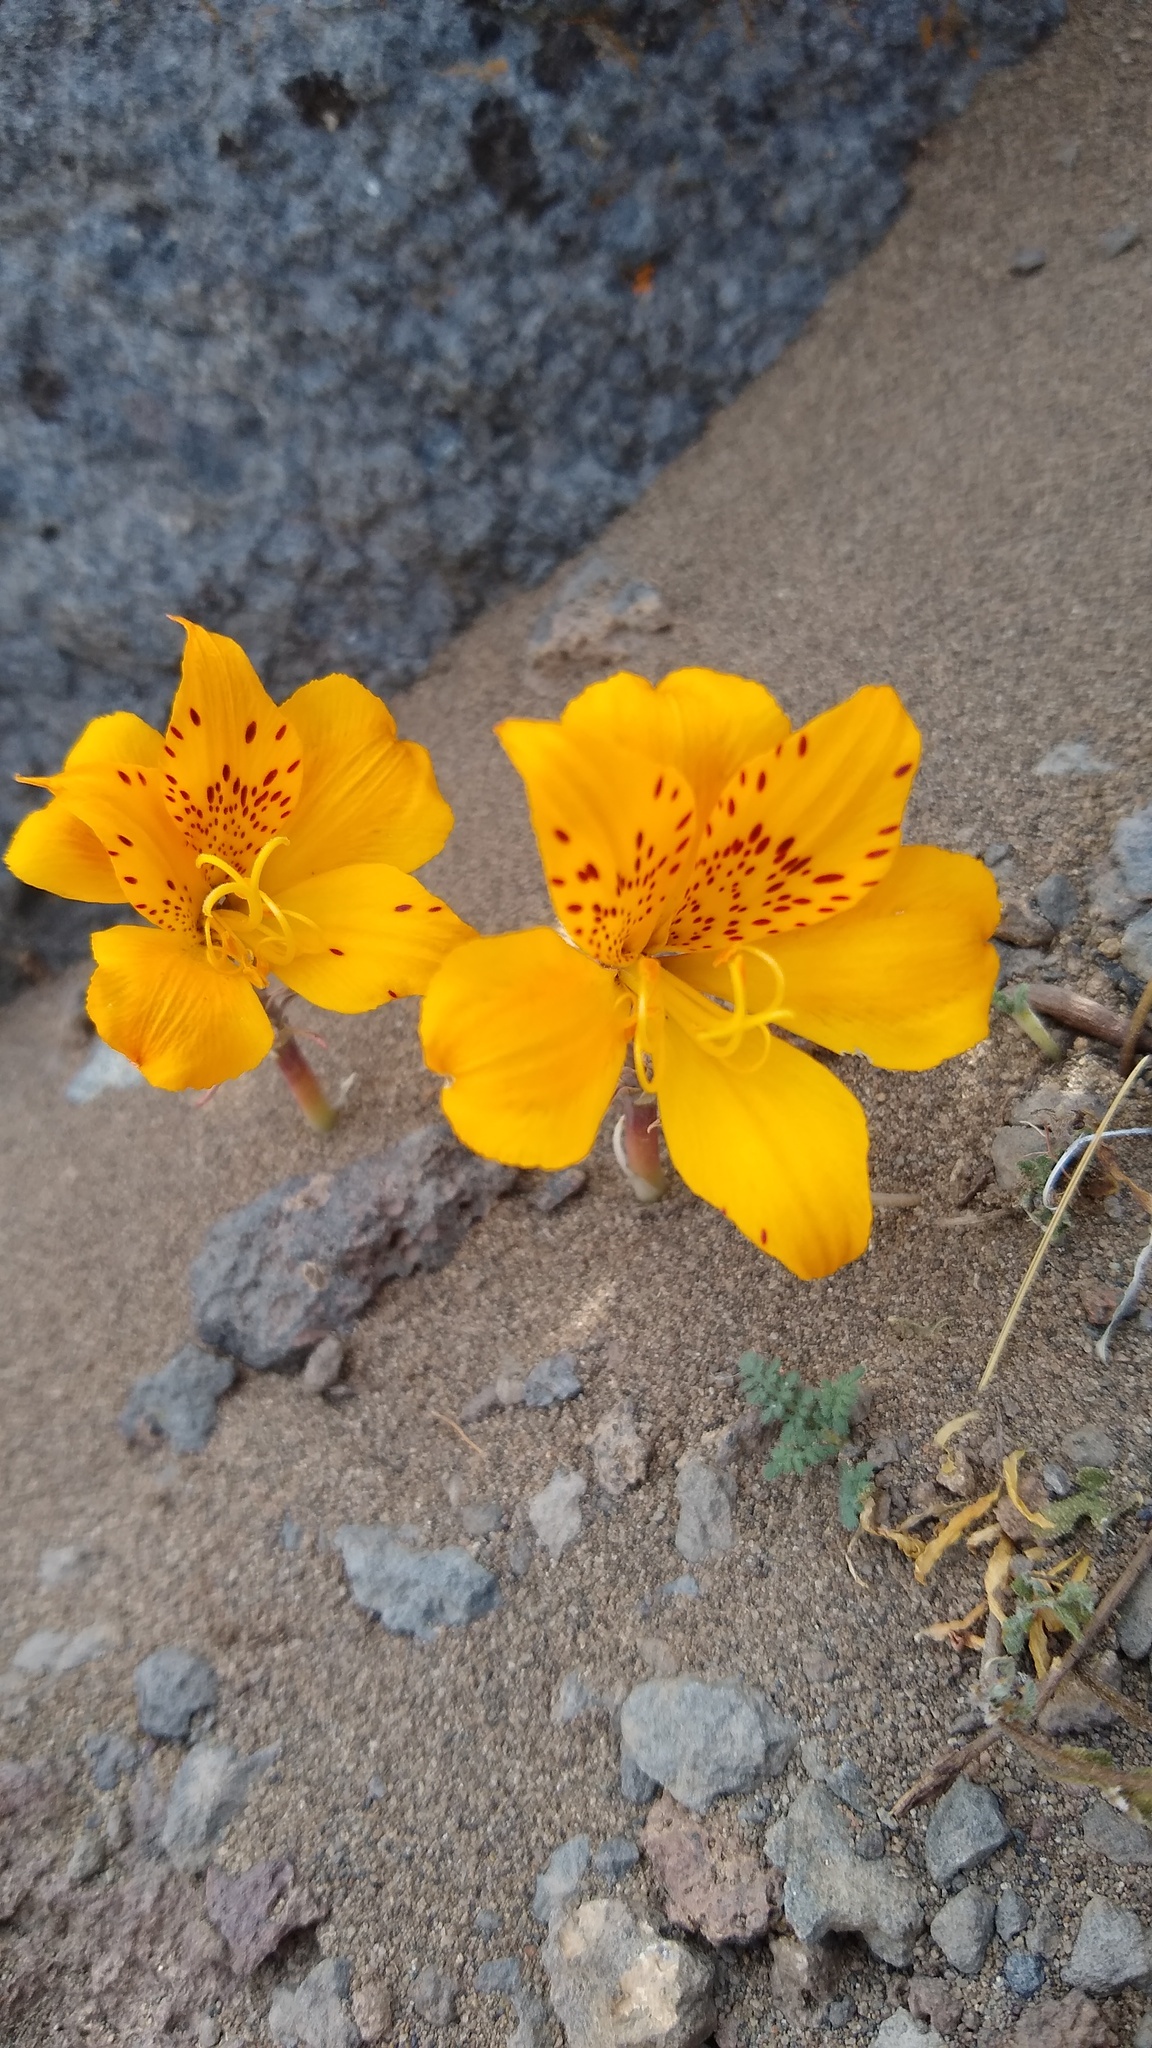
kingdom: Plantae
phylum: Tracheophyta
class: Liliopsida
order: Liliales
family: Alstroemeriaceae
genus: Alstroemeria
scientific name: Alstroemeria esteparica
